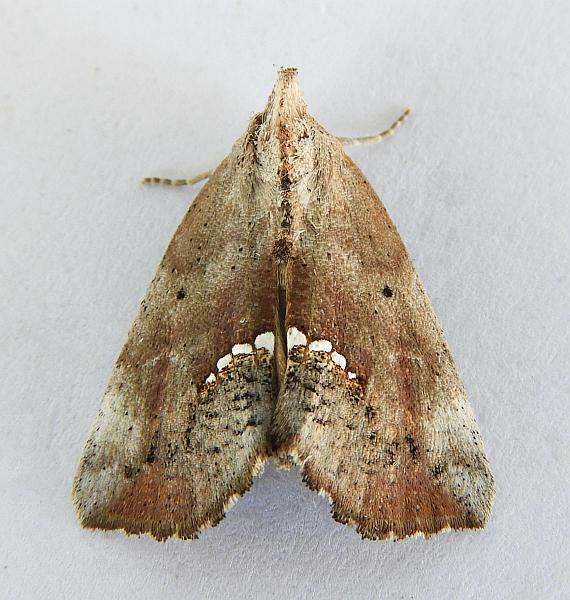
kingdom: Animalia
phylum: Arthropoda
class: Insecta
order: Lepidoptera
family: Erebidae
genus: Hypsoropha
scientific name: Hypsoropha hormos
